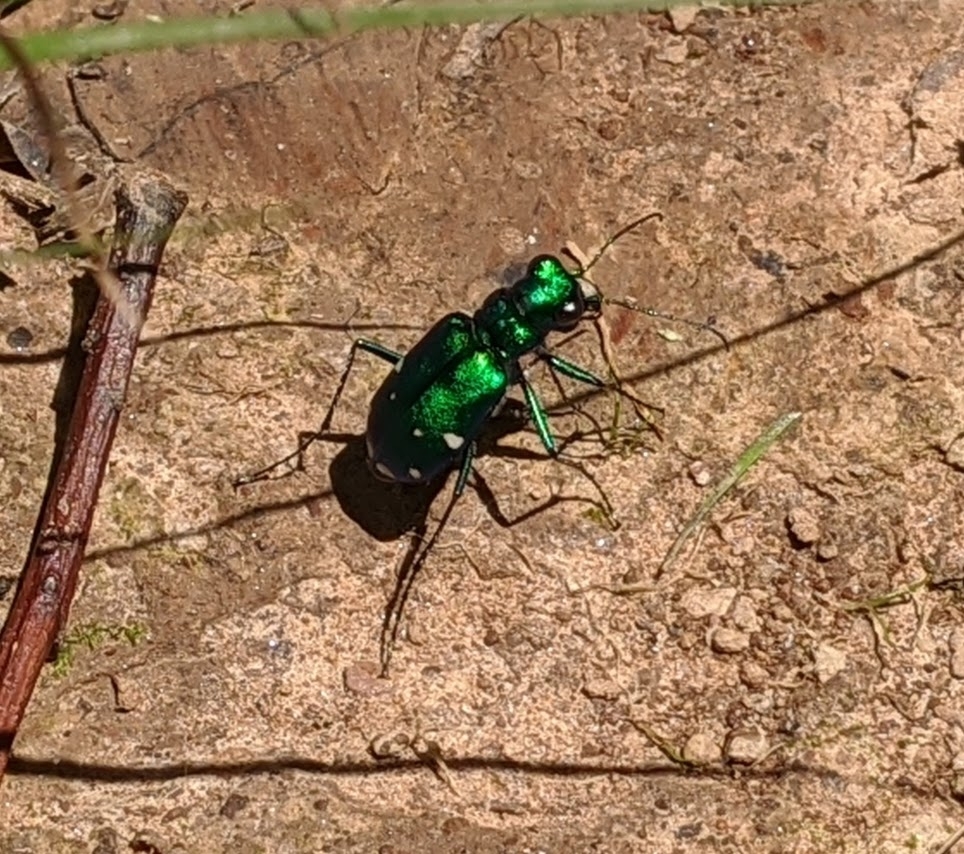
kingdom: Animalia
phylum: Arthropoda
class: Insecta
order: Coleoptera
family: Carabidae
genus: Cicindela
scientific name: Cicindela sexguttata
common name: Six-spotted tiger beetle
